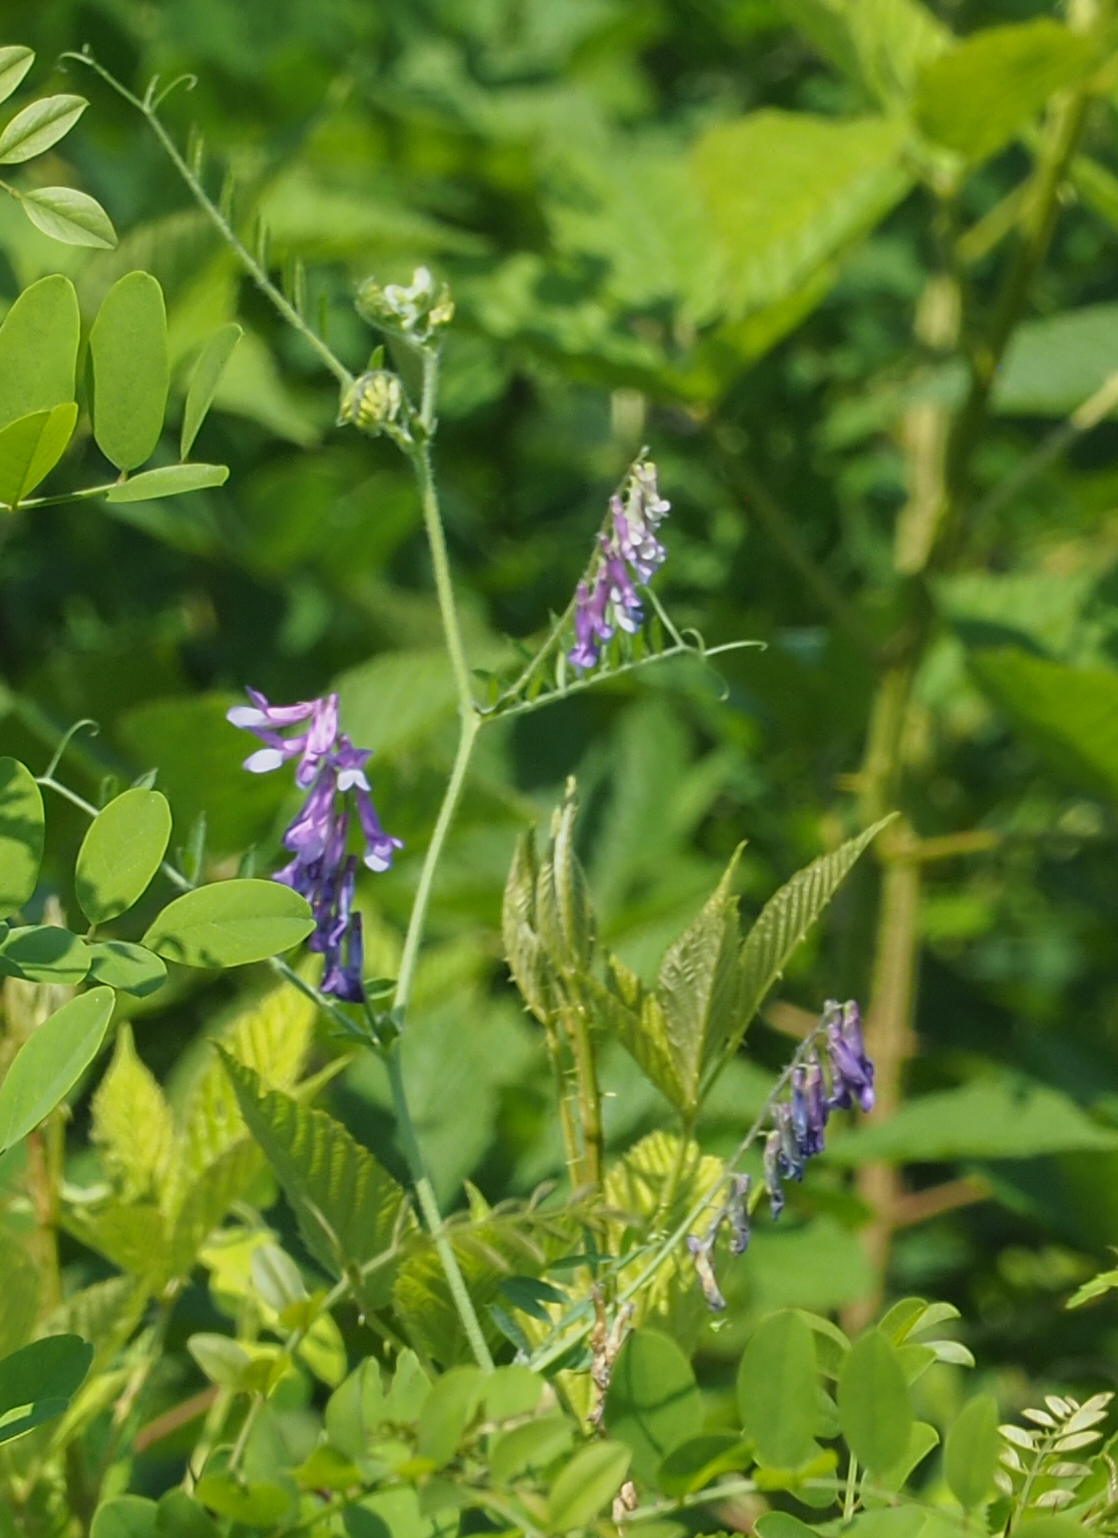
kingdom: Plantae
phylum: Tracheophyta
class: Magnoliopsida
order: Fabales
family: Fabaceae
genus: Vicia
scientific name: Vicia villosa
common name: Fodder vetch
